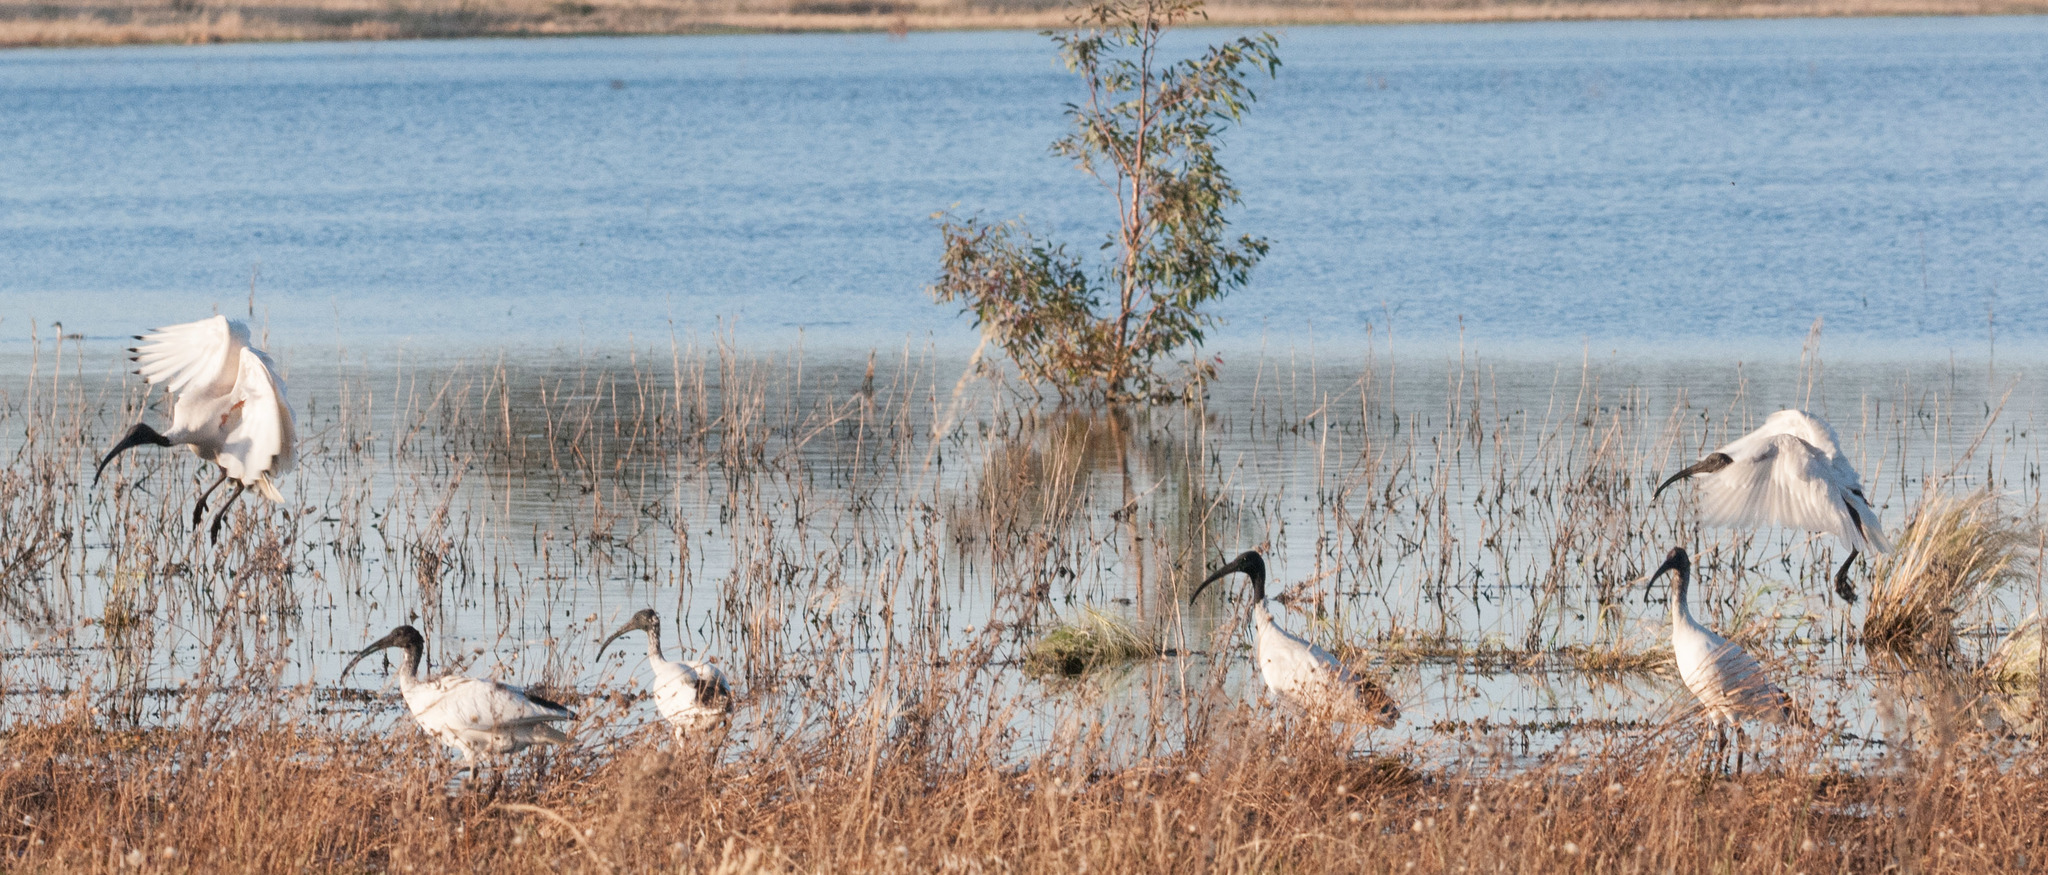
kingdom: Animalia
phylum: Chordata
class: Aves
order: Pelecaniformes
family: Threskiornithidae
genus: Threskiornis
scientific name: Threskiornis molucca
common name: Australian white ibis
